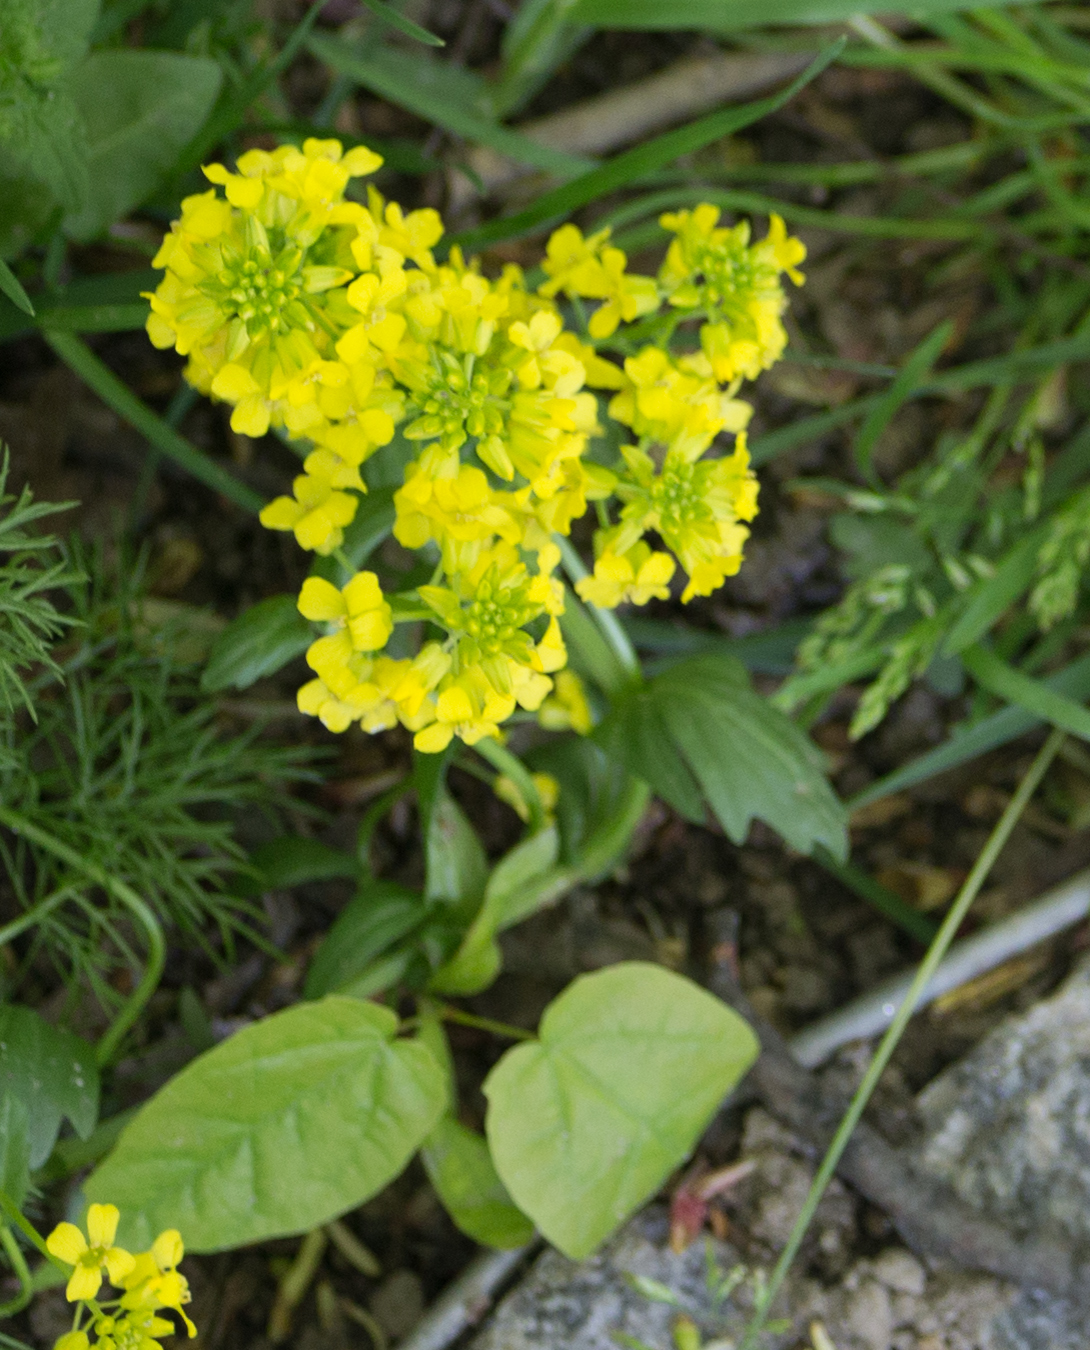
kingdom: Plantae
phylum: Tracheophyta
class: Magnoliopsida
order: Brassicales
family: Brassicaceae
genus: Barbarea
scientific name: Barbarea vulgaris
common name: Cressy-greens
